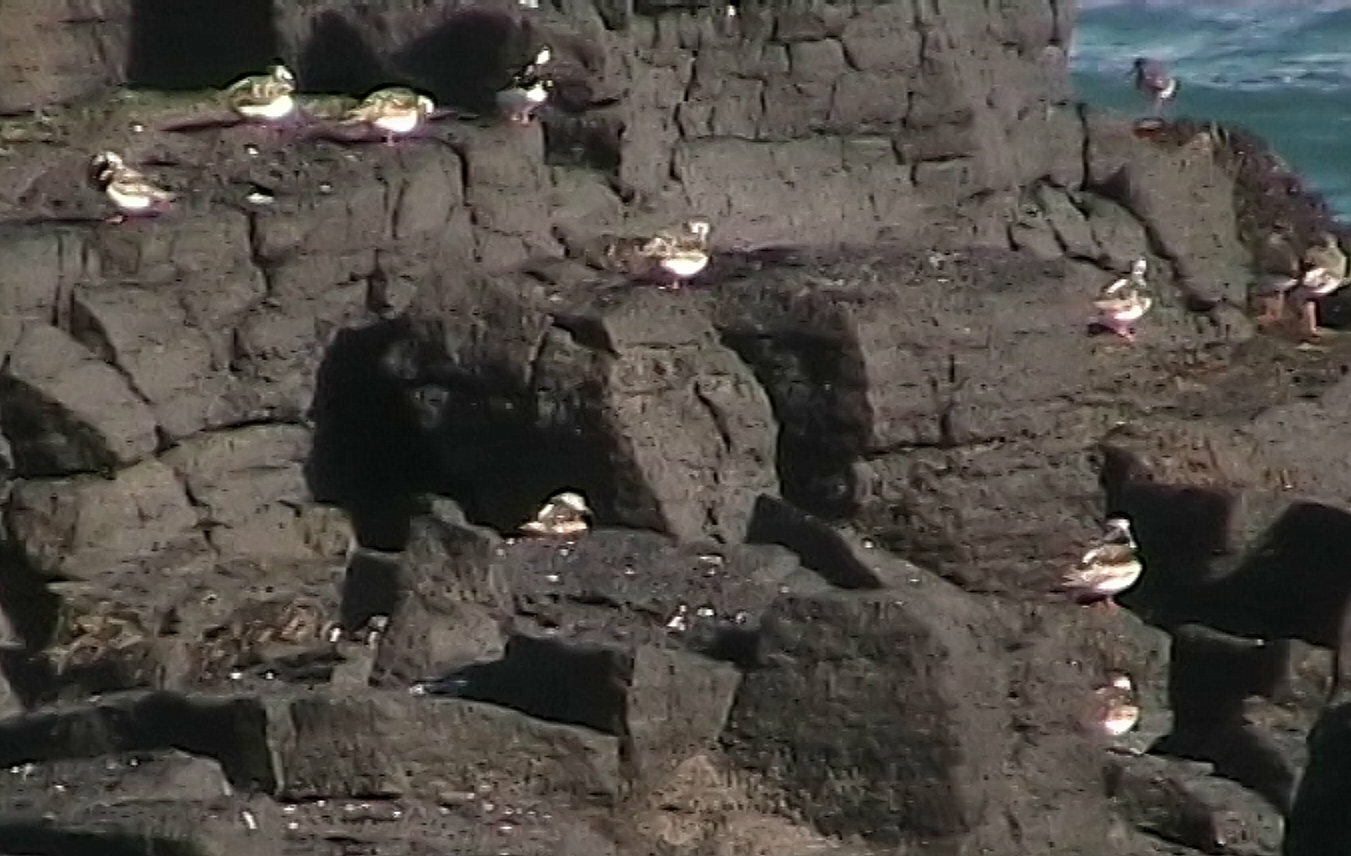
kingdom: Animalia
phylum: Chordata
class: Aves
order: Charadriiformes
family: Scolopacidae
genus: Arenaria
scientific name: Arenaria interpres
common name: Ruddy turnstone
